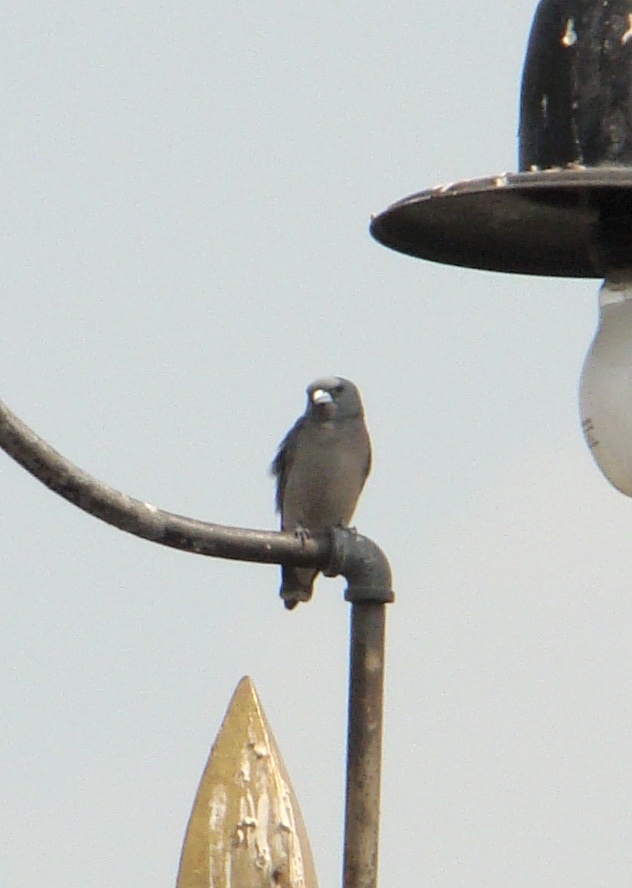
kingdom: Animalia
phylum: Chordata
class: Aves
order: Passeriformes
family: Artamidae
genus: Artamus
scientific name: Artamus fuscus
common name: Ashy woodswallow
